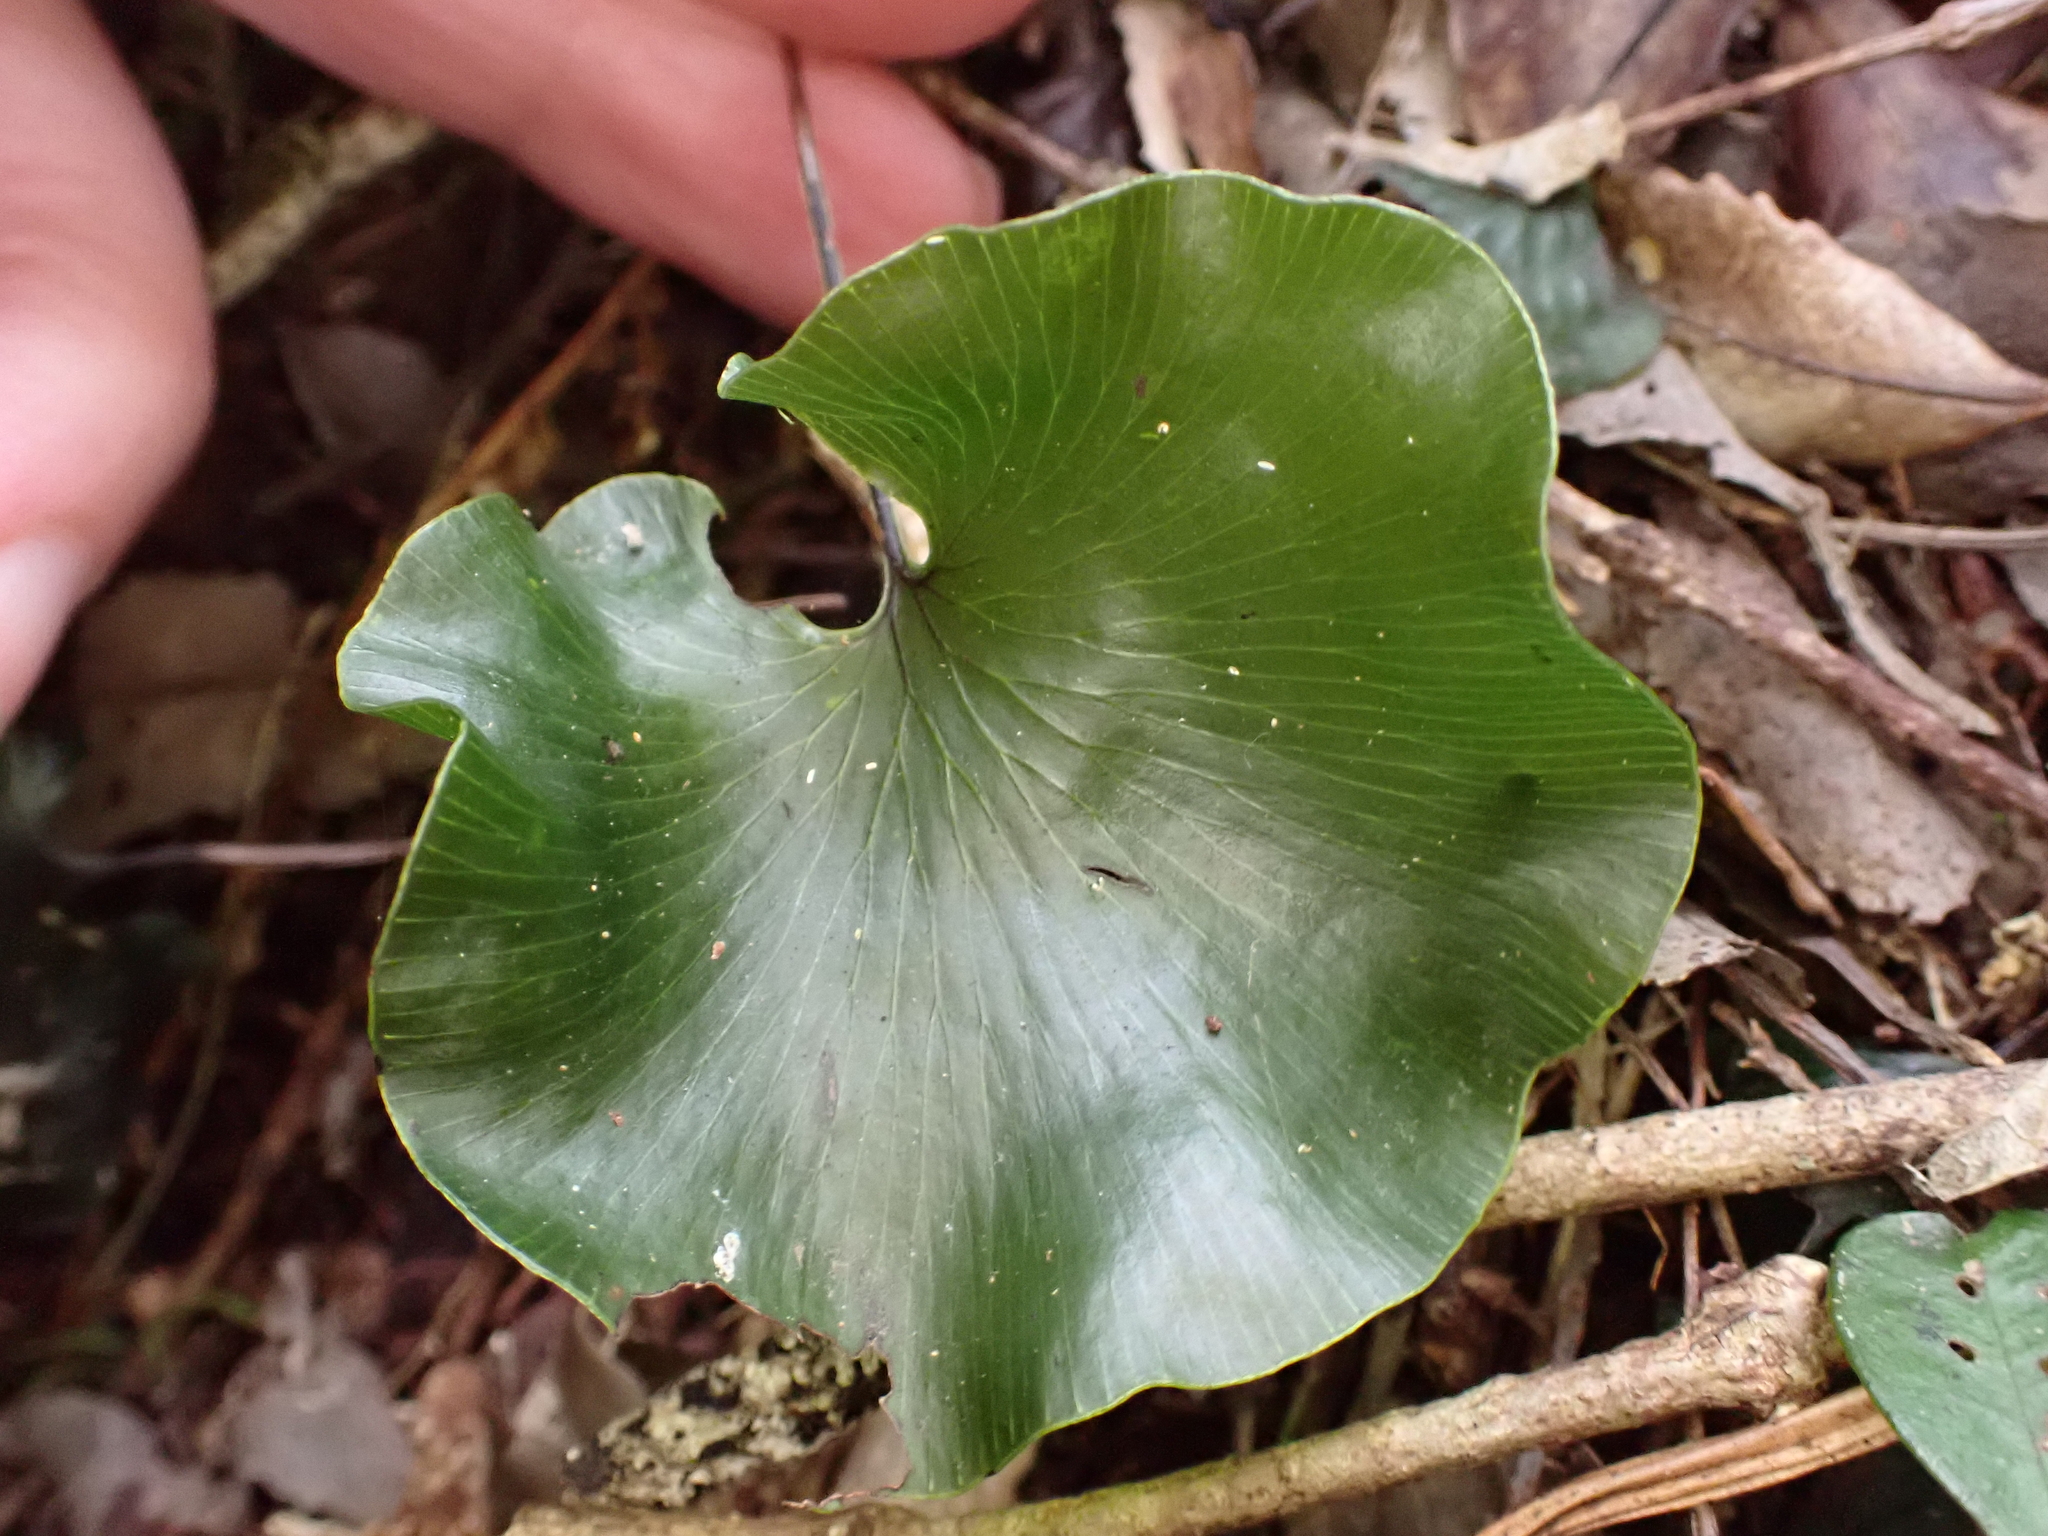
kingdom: Plantae
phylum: Tracheophyta
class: Polypodiopsida
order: Hymenophyllales
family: Hymenophyllaceae
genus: Hymenophyllum
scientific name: Hymenophyllum nephrophyllum
